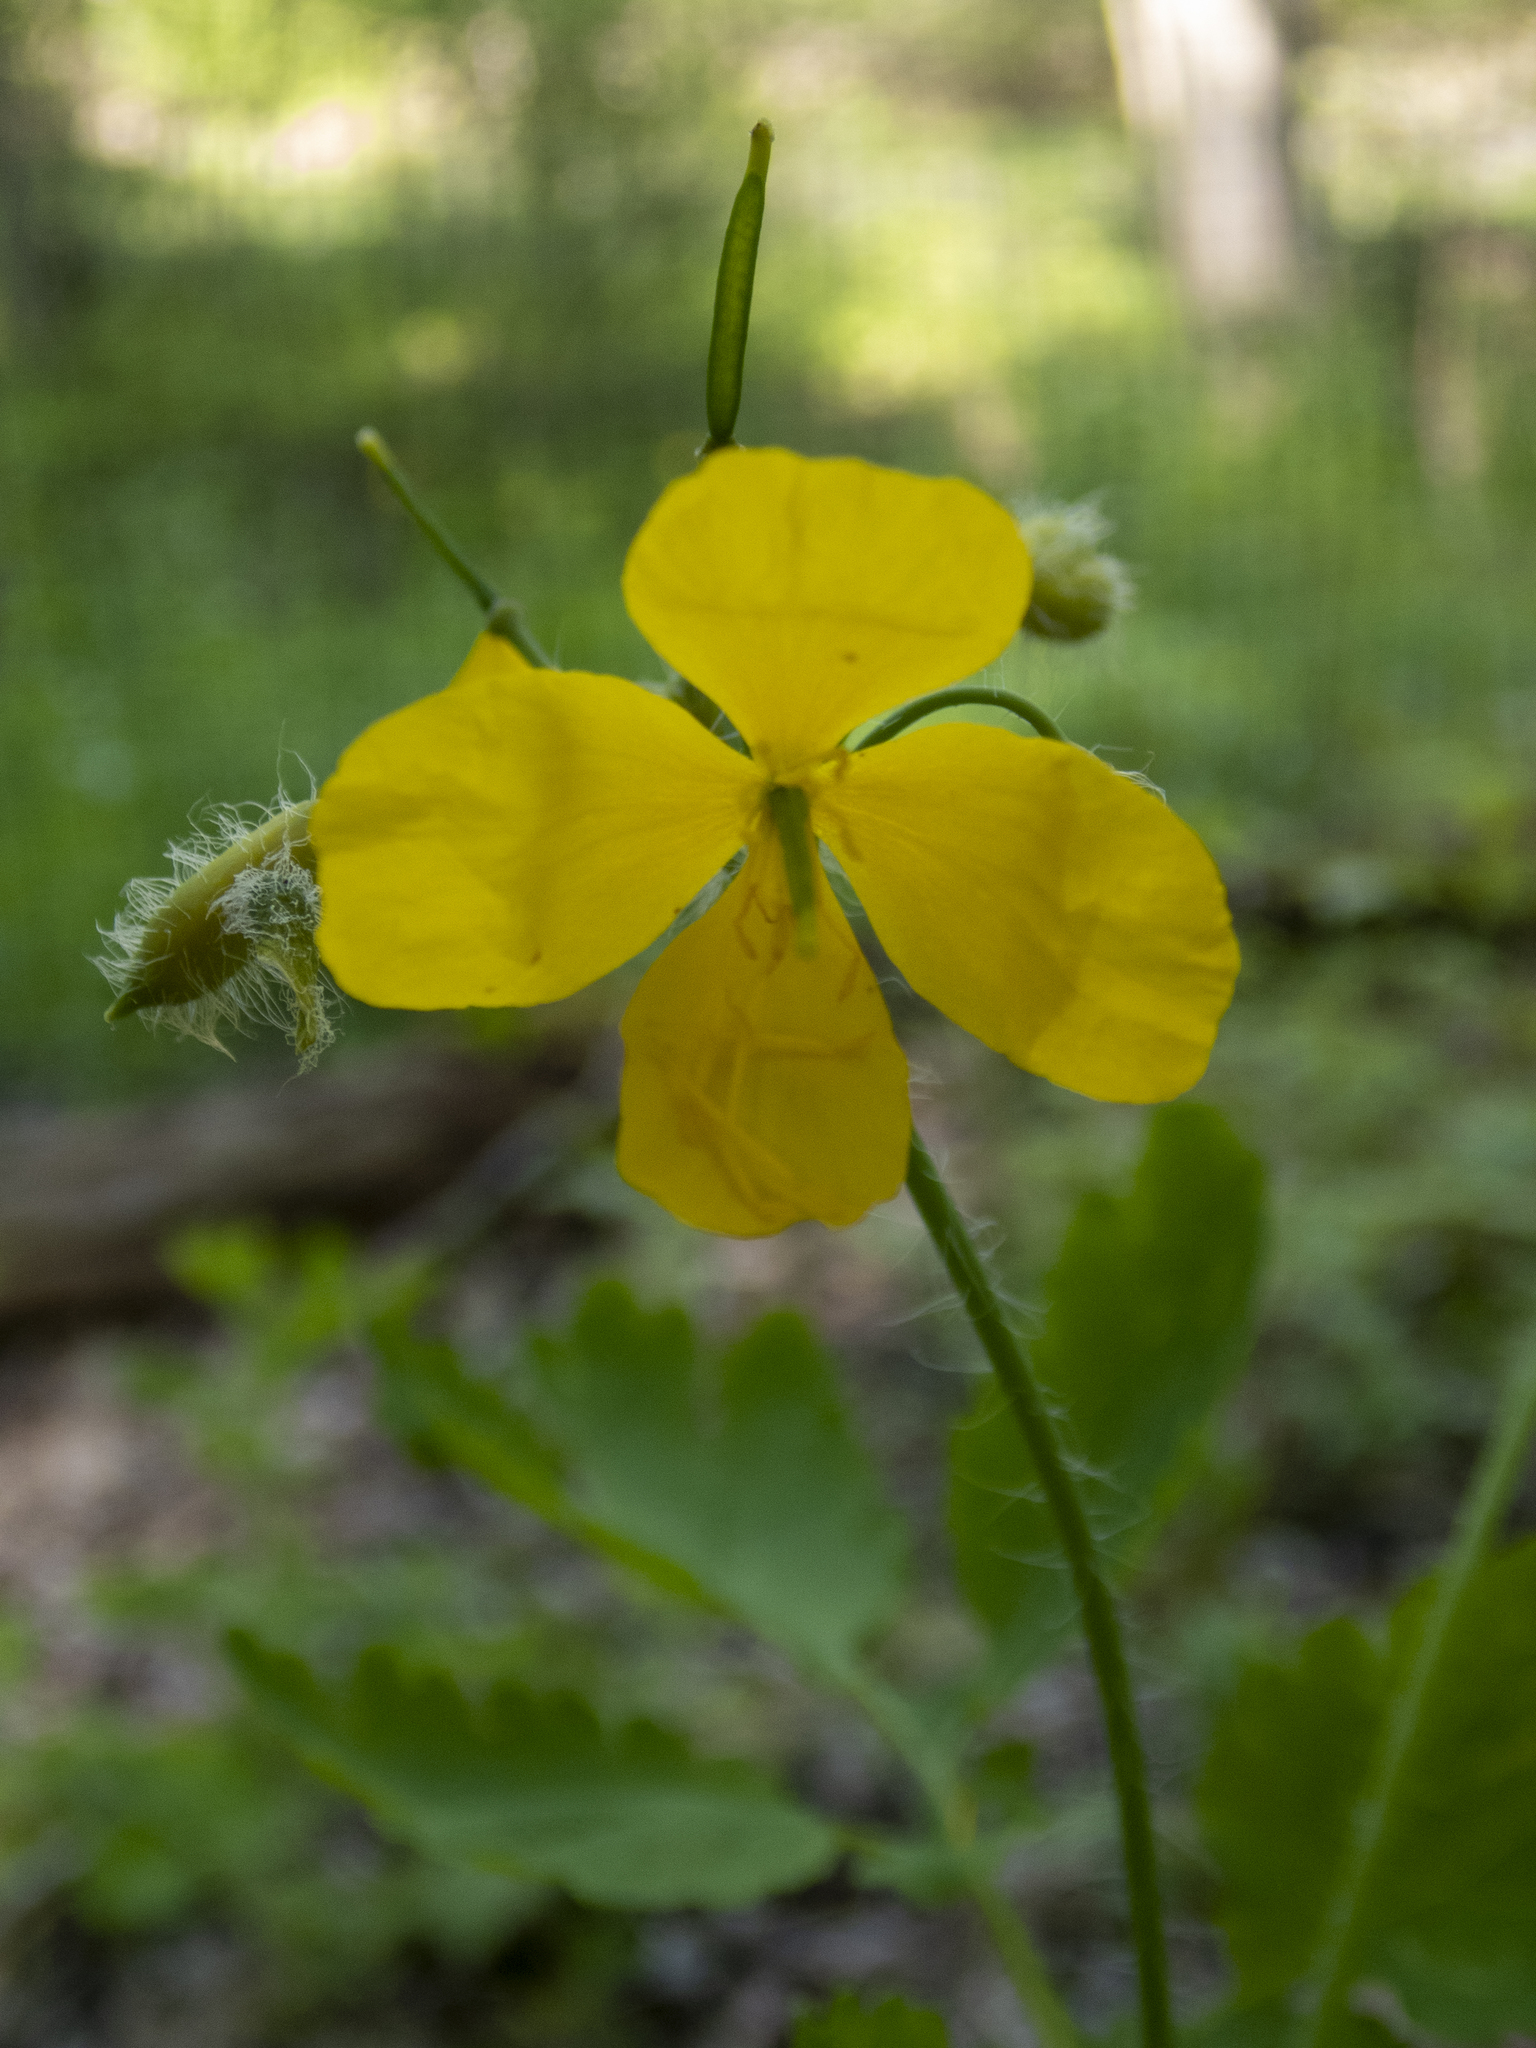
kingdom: Plantae
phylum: Tracheophyta
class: Magnoliopsida
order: Ranunculales
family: Papaveraceae
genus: Chelidonium
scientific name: Chelidonium majus
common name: Greater celandine
